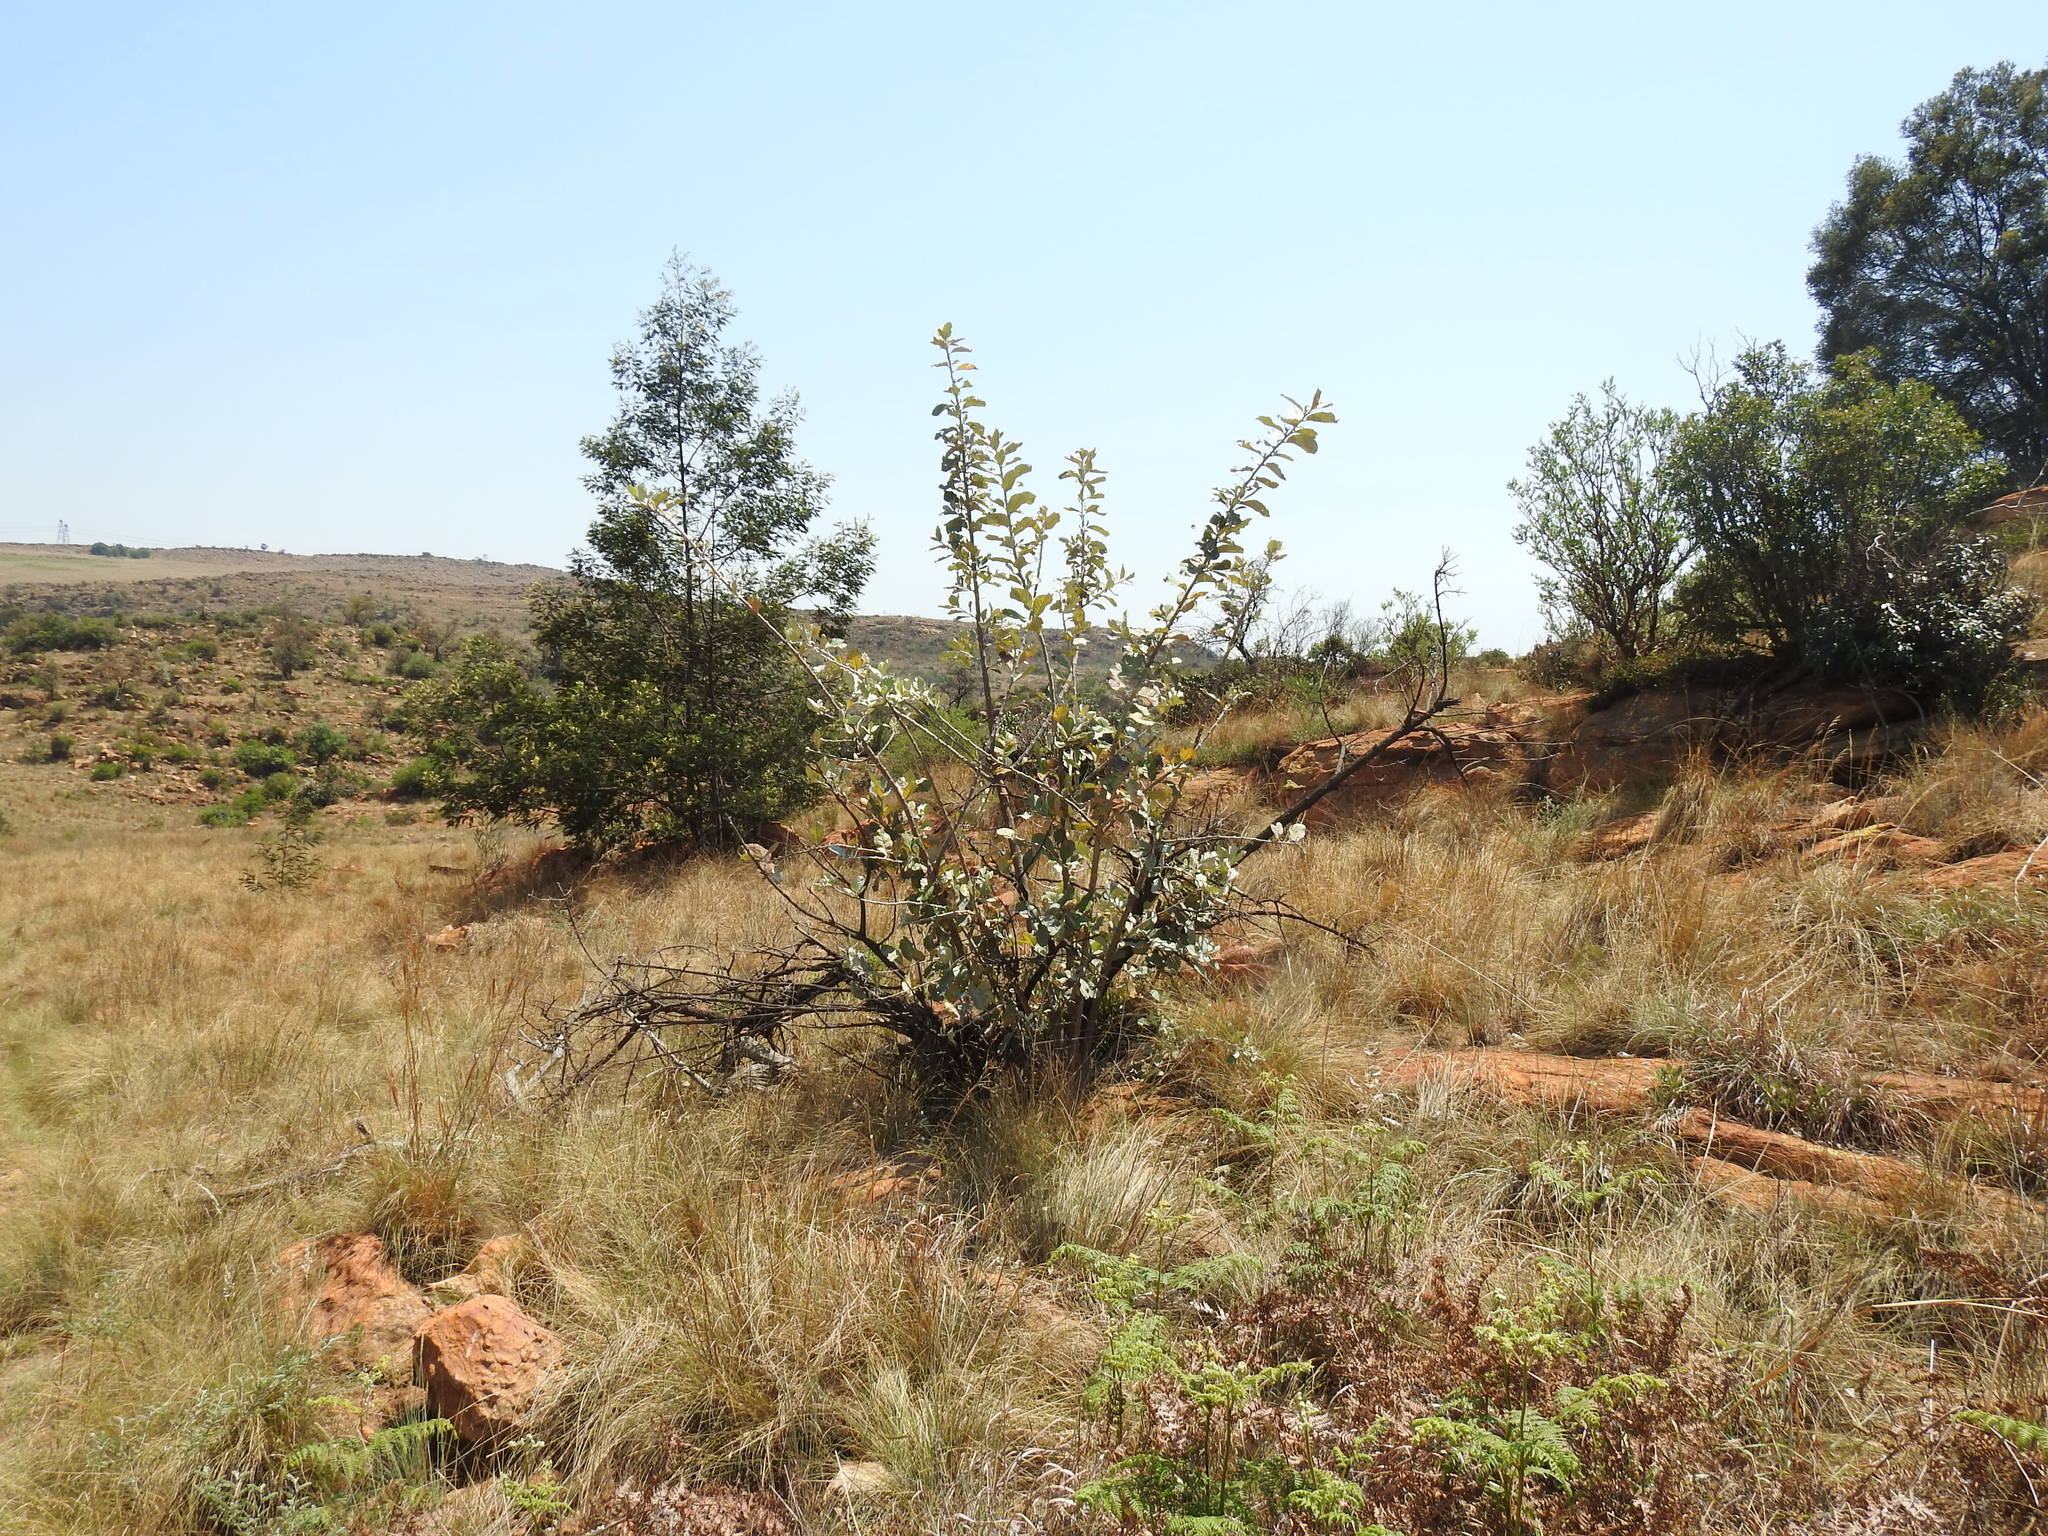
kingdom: Plantae
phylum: Tracheophyta
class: Magnoliopsida
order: Asterales
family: Asteraceae
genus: Brachylaena
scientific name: Brachylaena discolor
